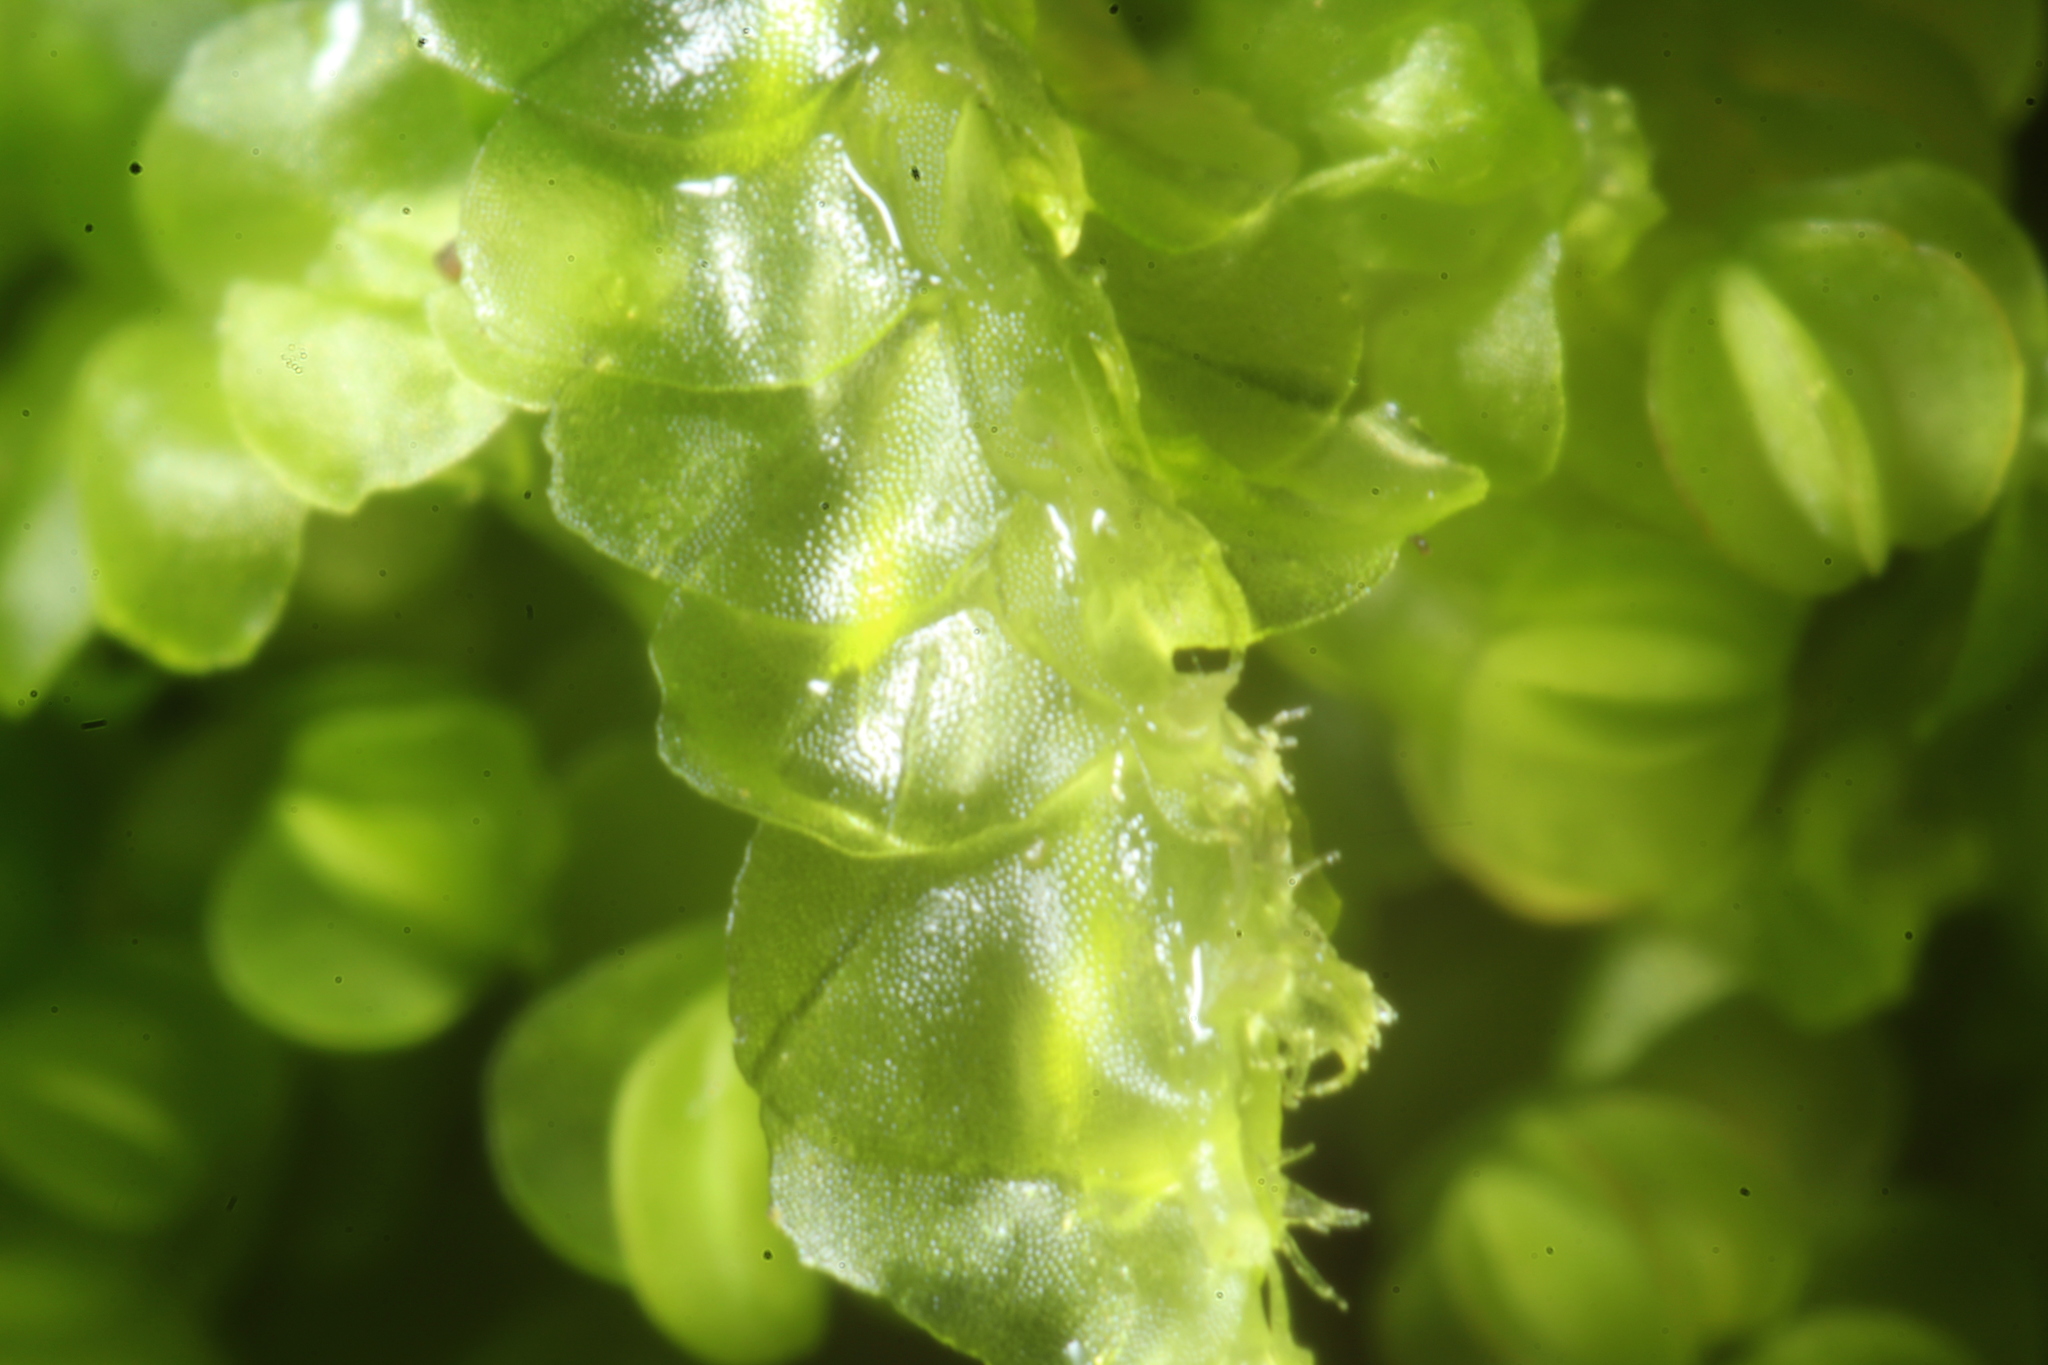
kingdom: Plantae
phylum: Marchantiophyta
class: Jungermanniopsida
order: Jungermanniales
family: Lophocoleaceae
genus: Lophocolea
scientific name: Lophocolea semiteres
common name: Southern crestwort
